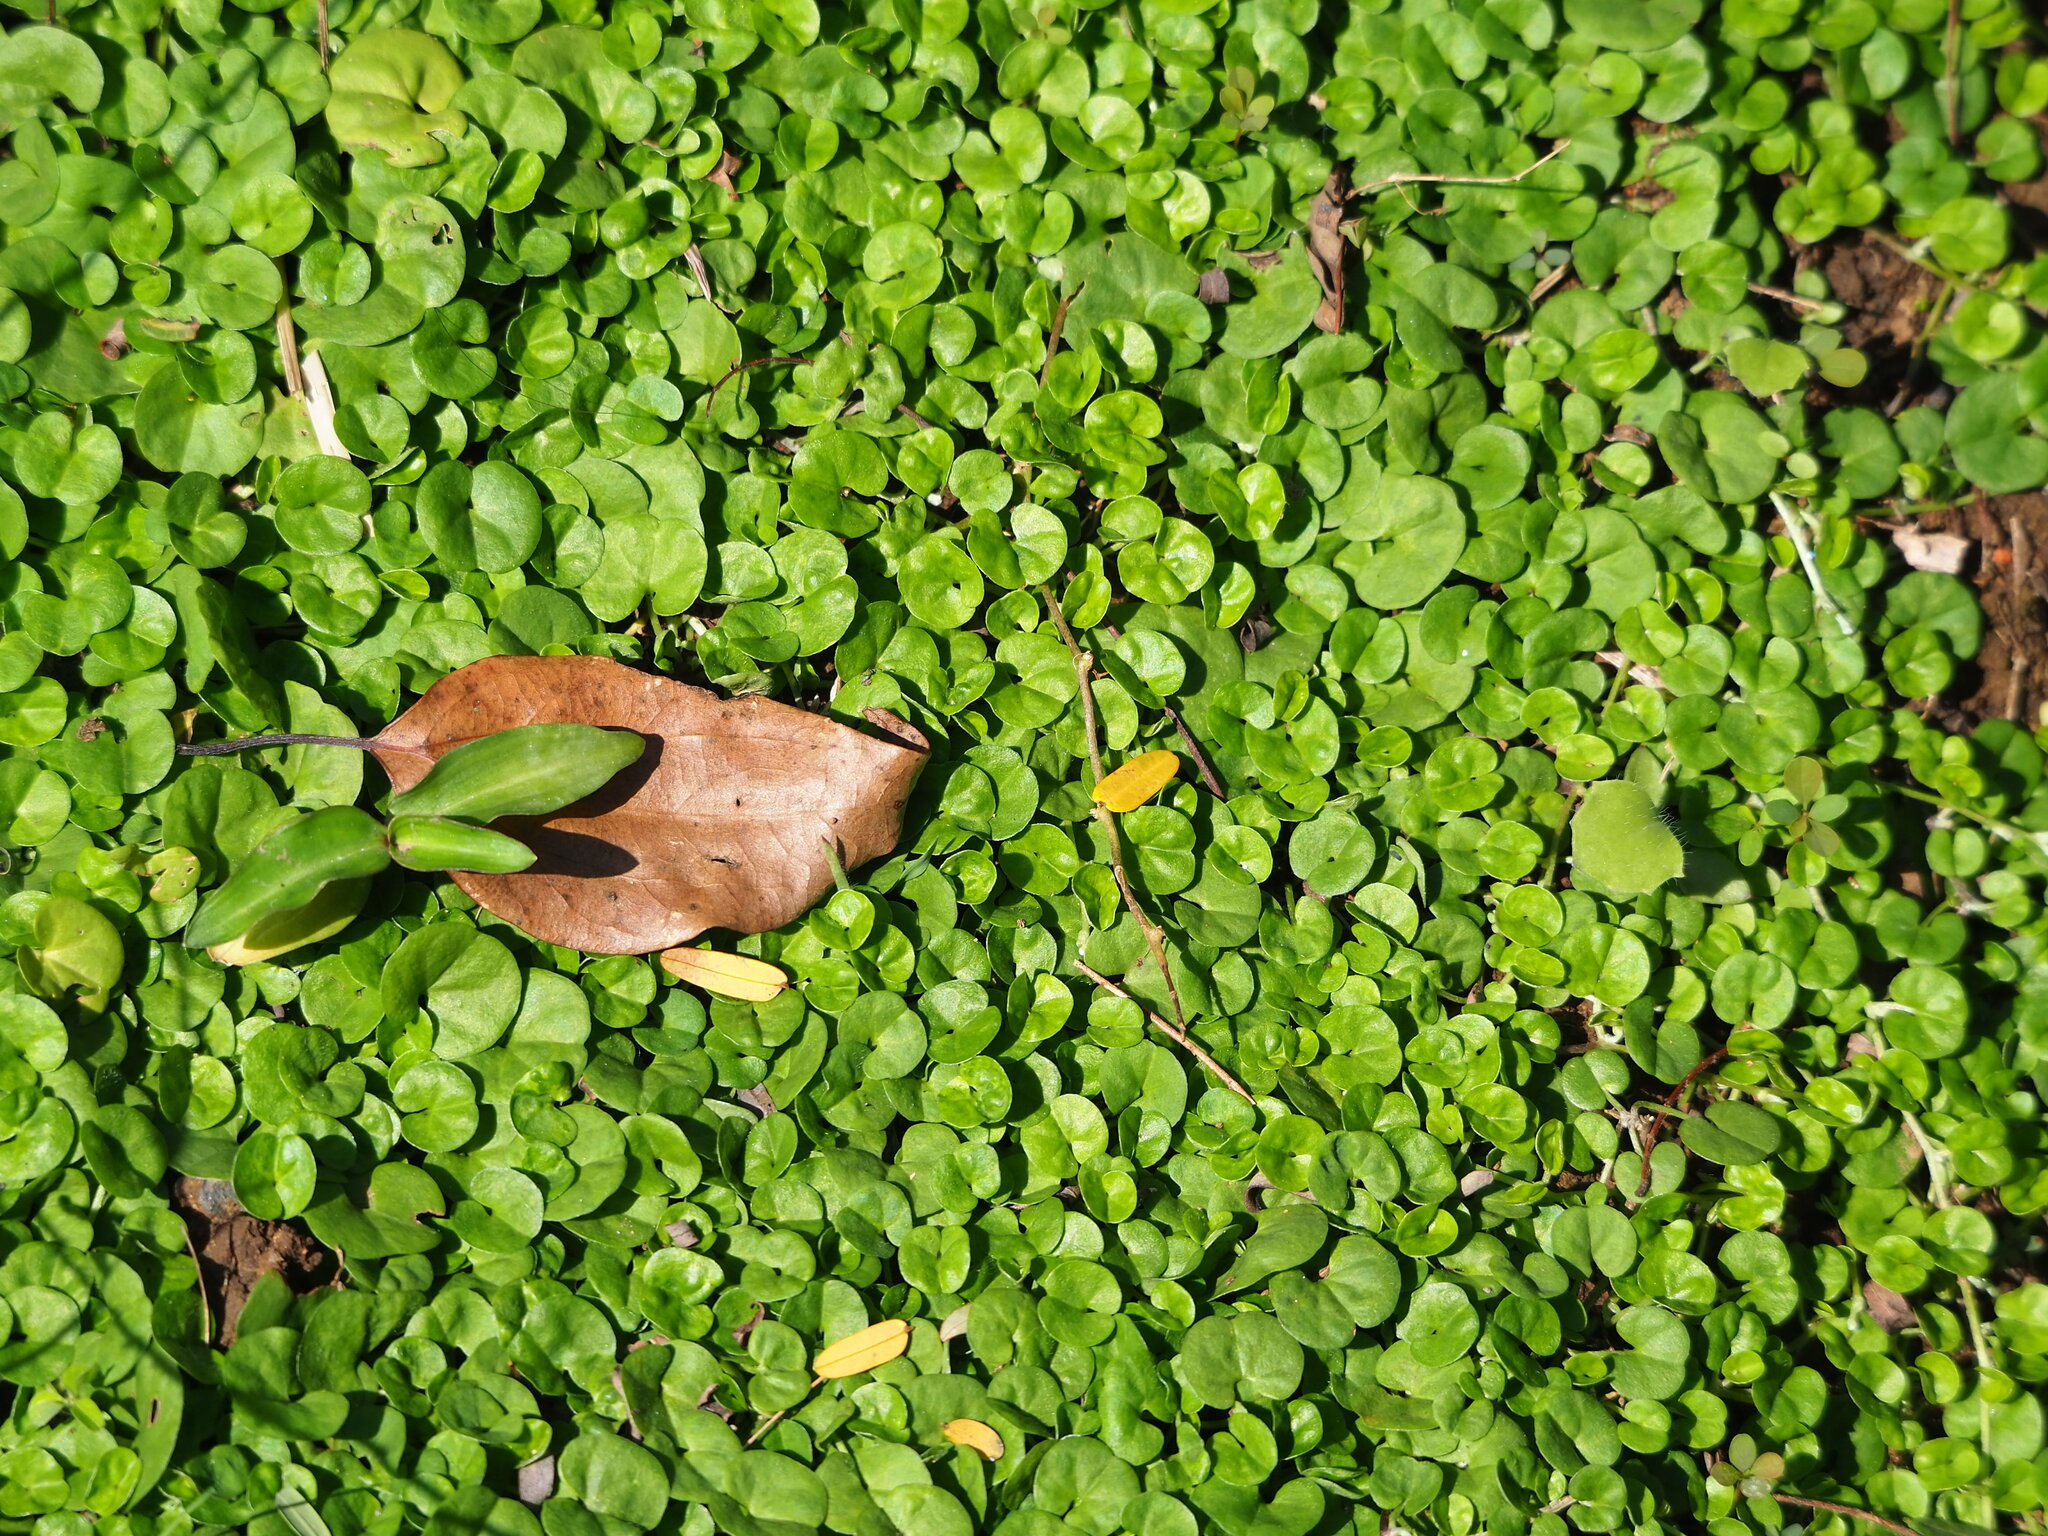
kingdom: Plantae
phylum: Tracheophyta
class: Magnoliopsida
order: Solanales
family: Convolvulaceae
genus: Dichondra
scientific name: Dichondra micrantha
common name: Kidneyweed
